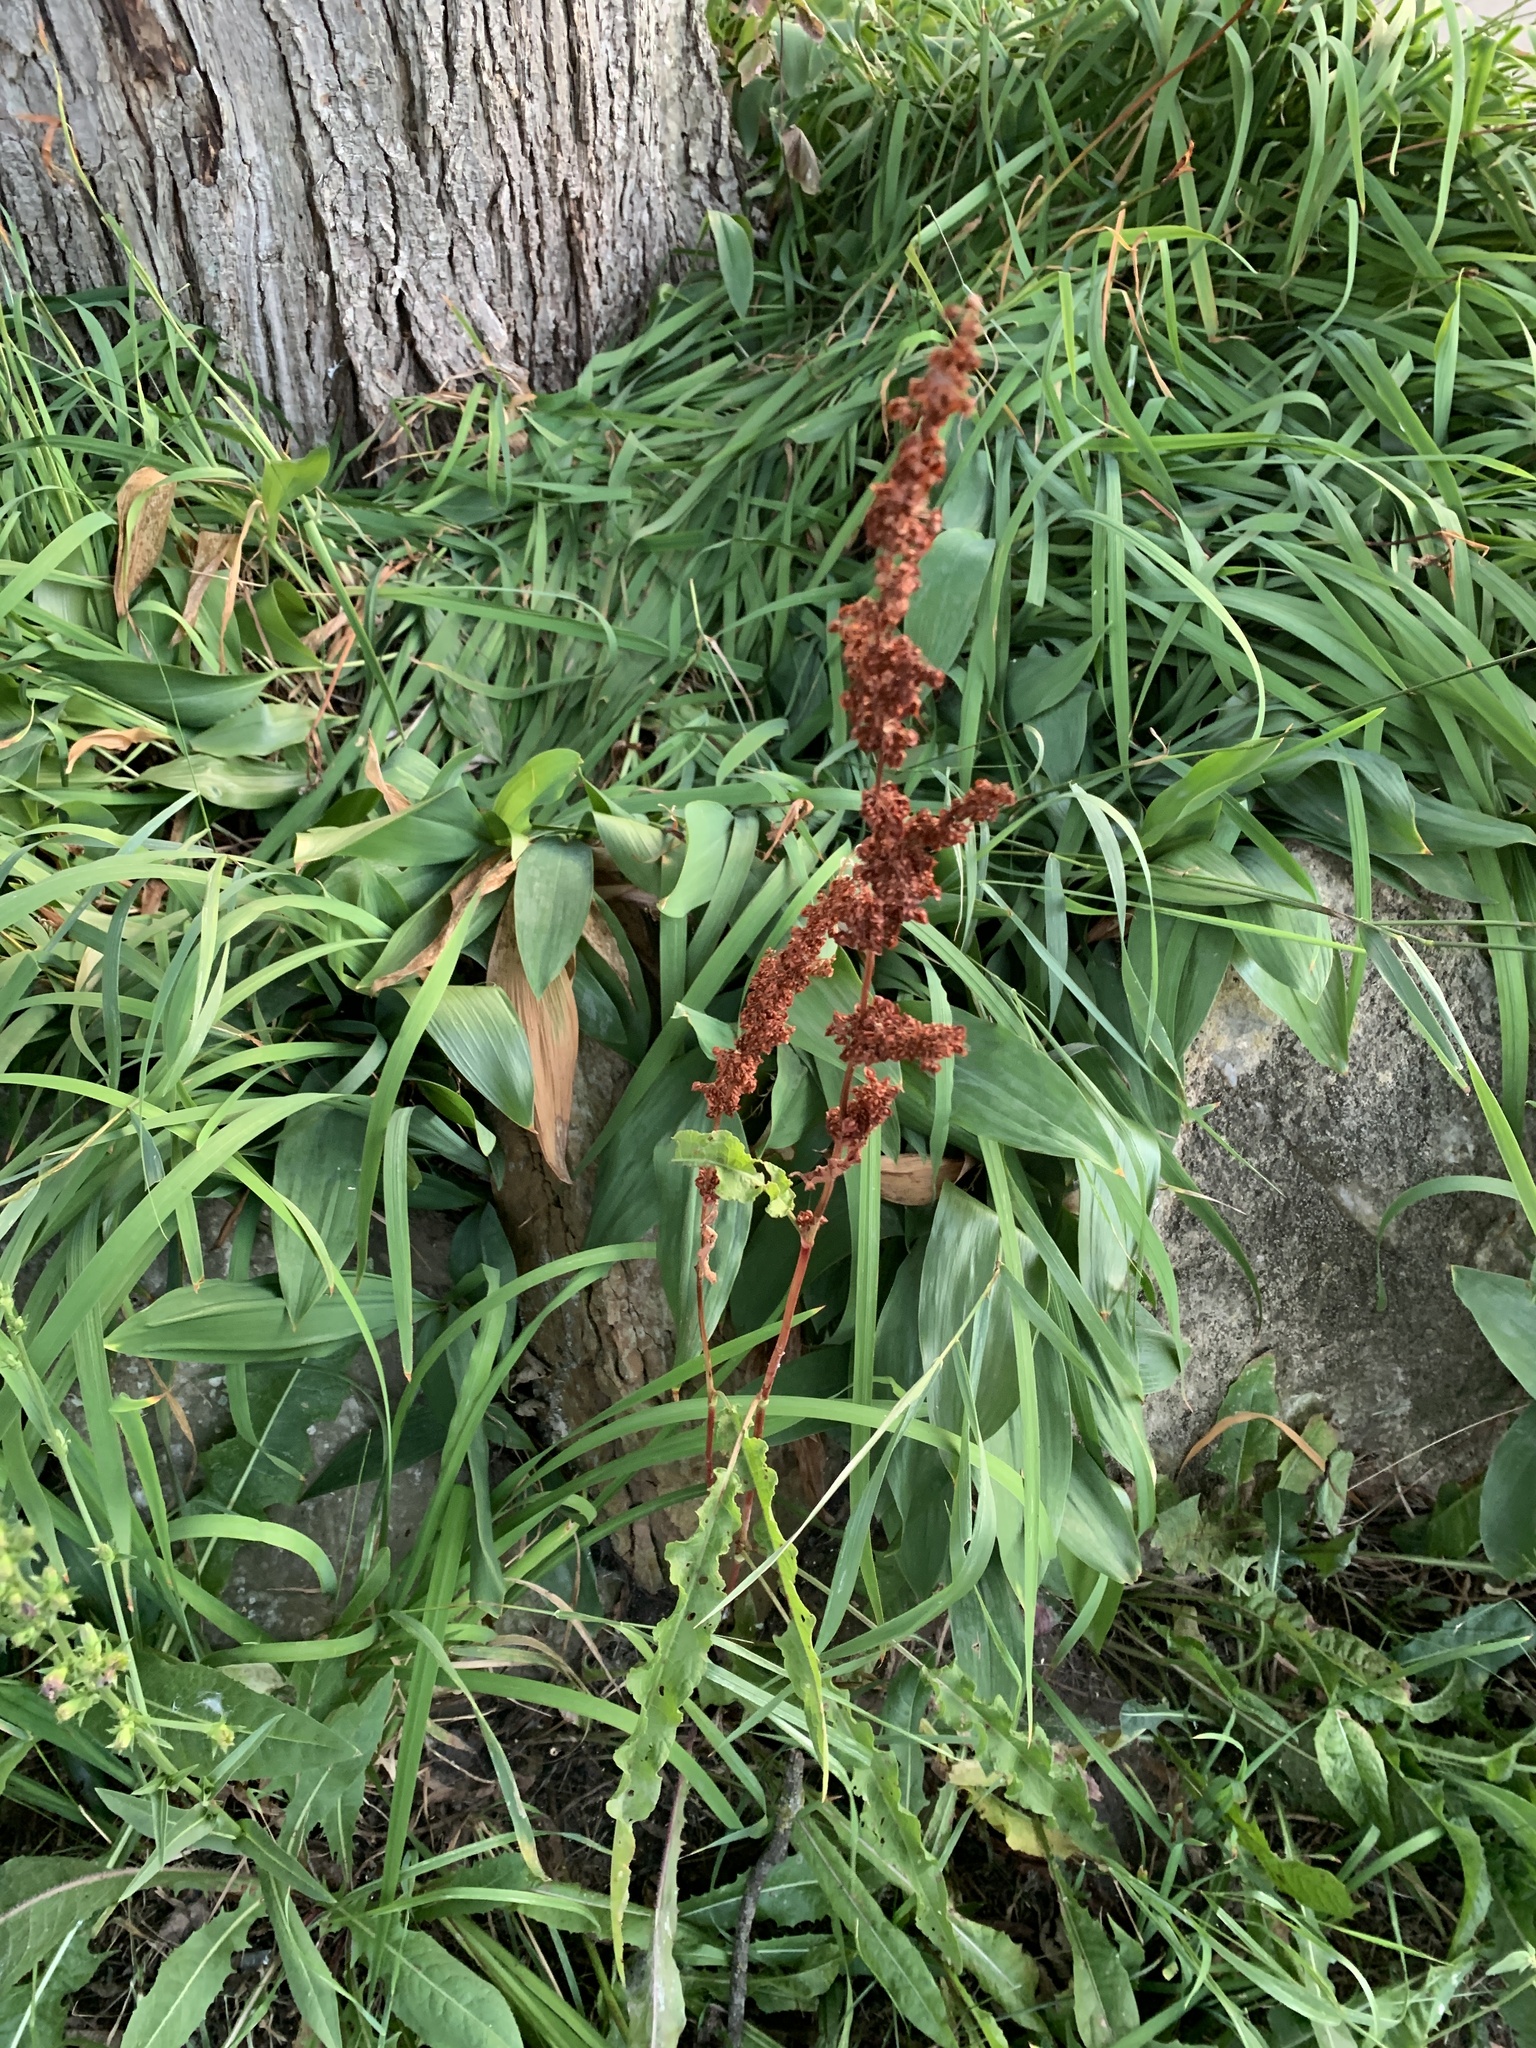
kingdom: Plantae
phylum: Tracheophyta
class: Magnoliopsida
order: Caryophyllales
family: Polygonaceae
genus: Rumex
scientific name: Rumex crispus
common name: Curled dock
